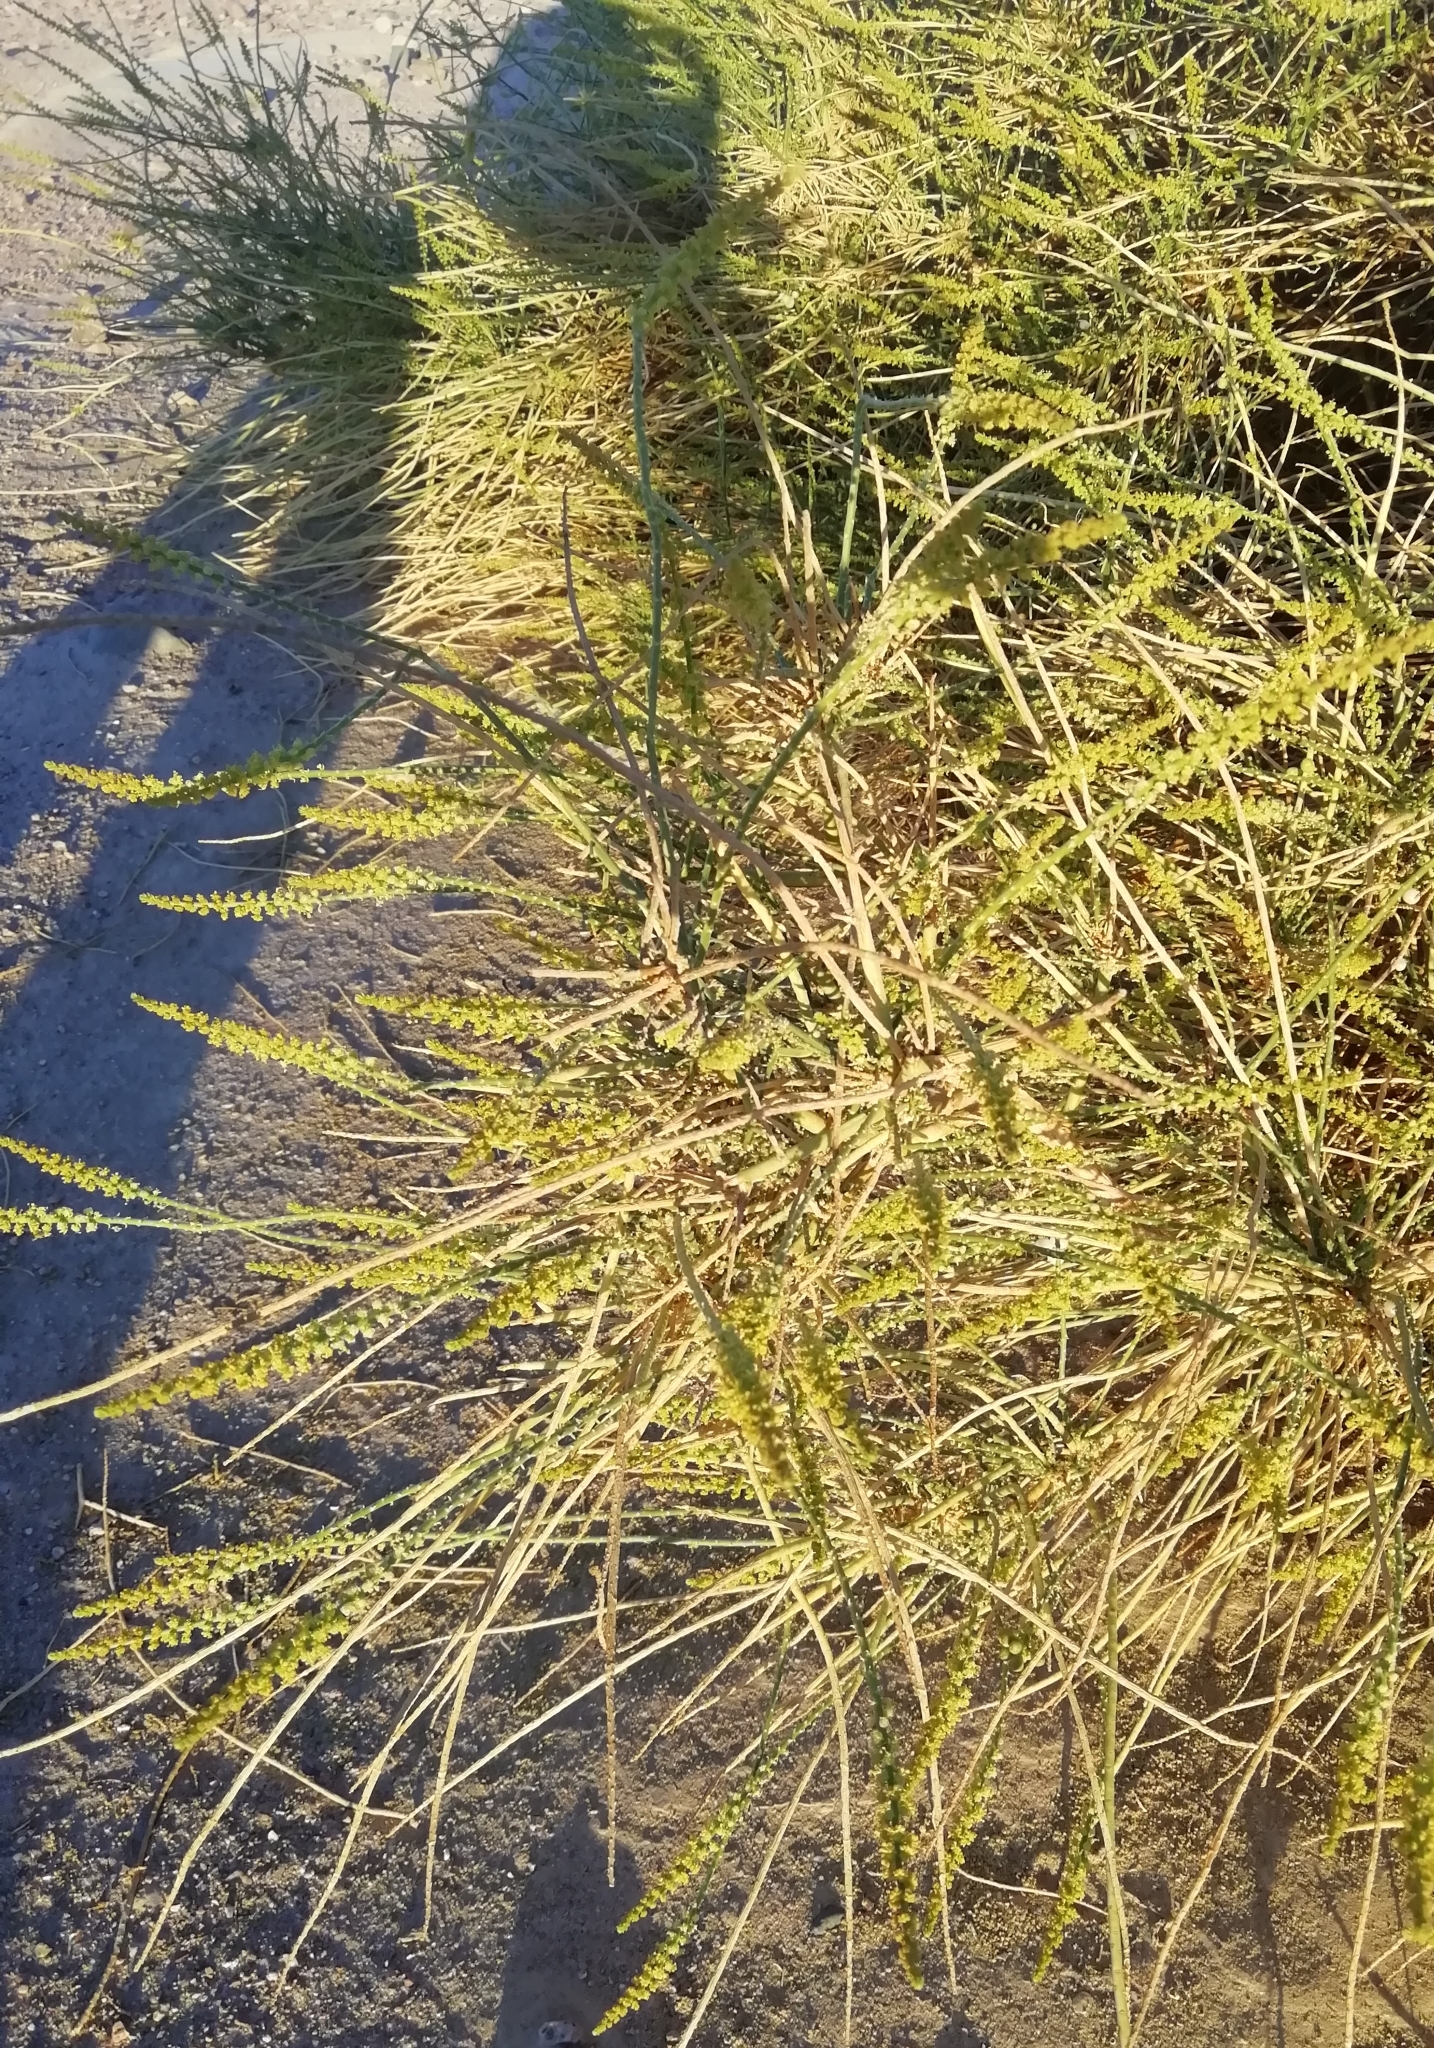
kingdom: Plantae
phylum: Tracheophyta
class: Magnoliopsida
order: Brassicales
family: Resedaceae
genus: Ochradenus
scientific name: Ochradenus baccatus
